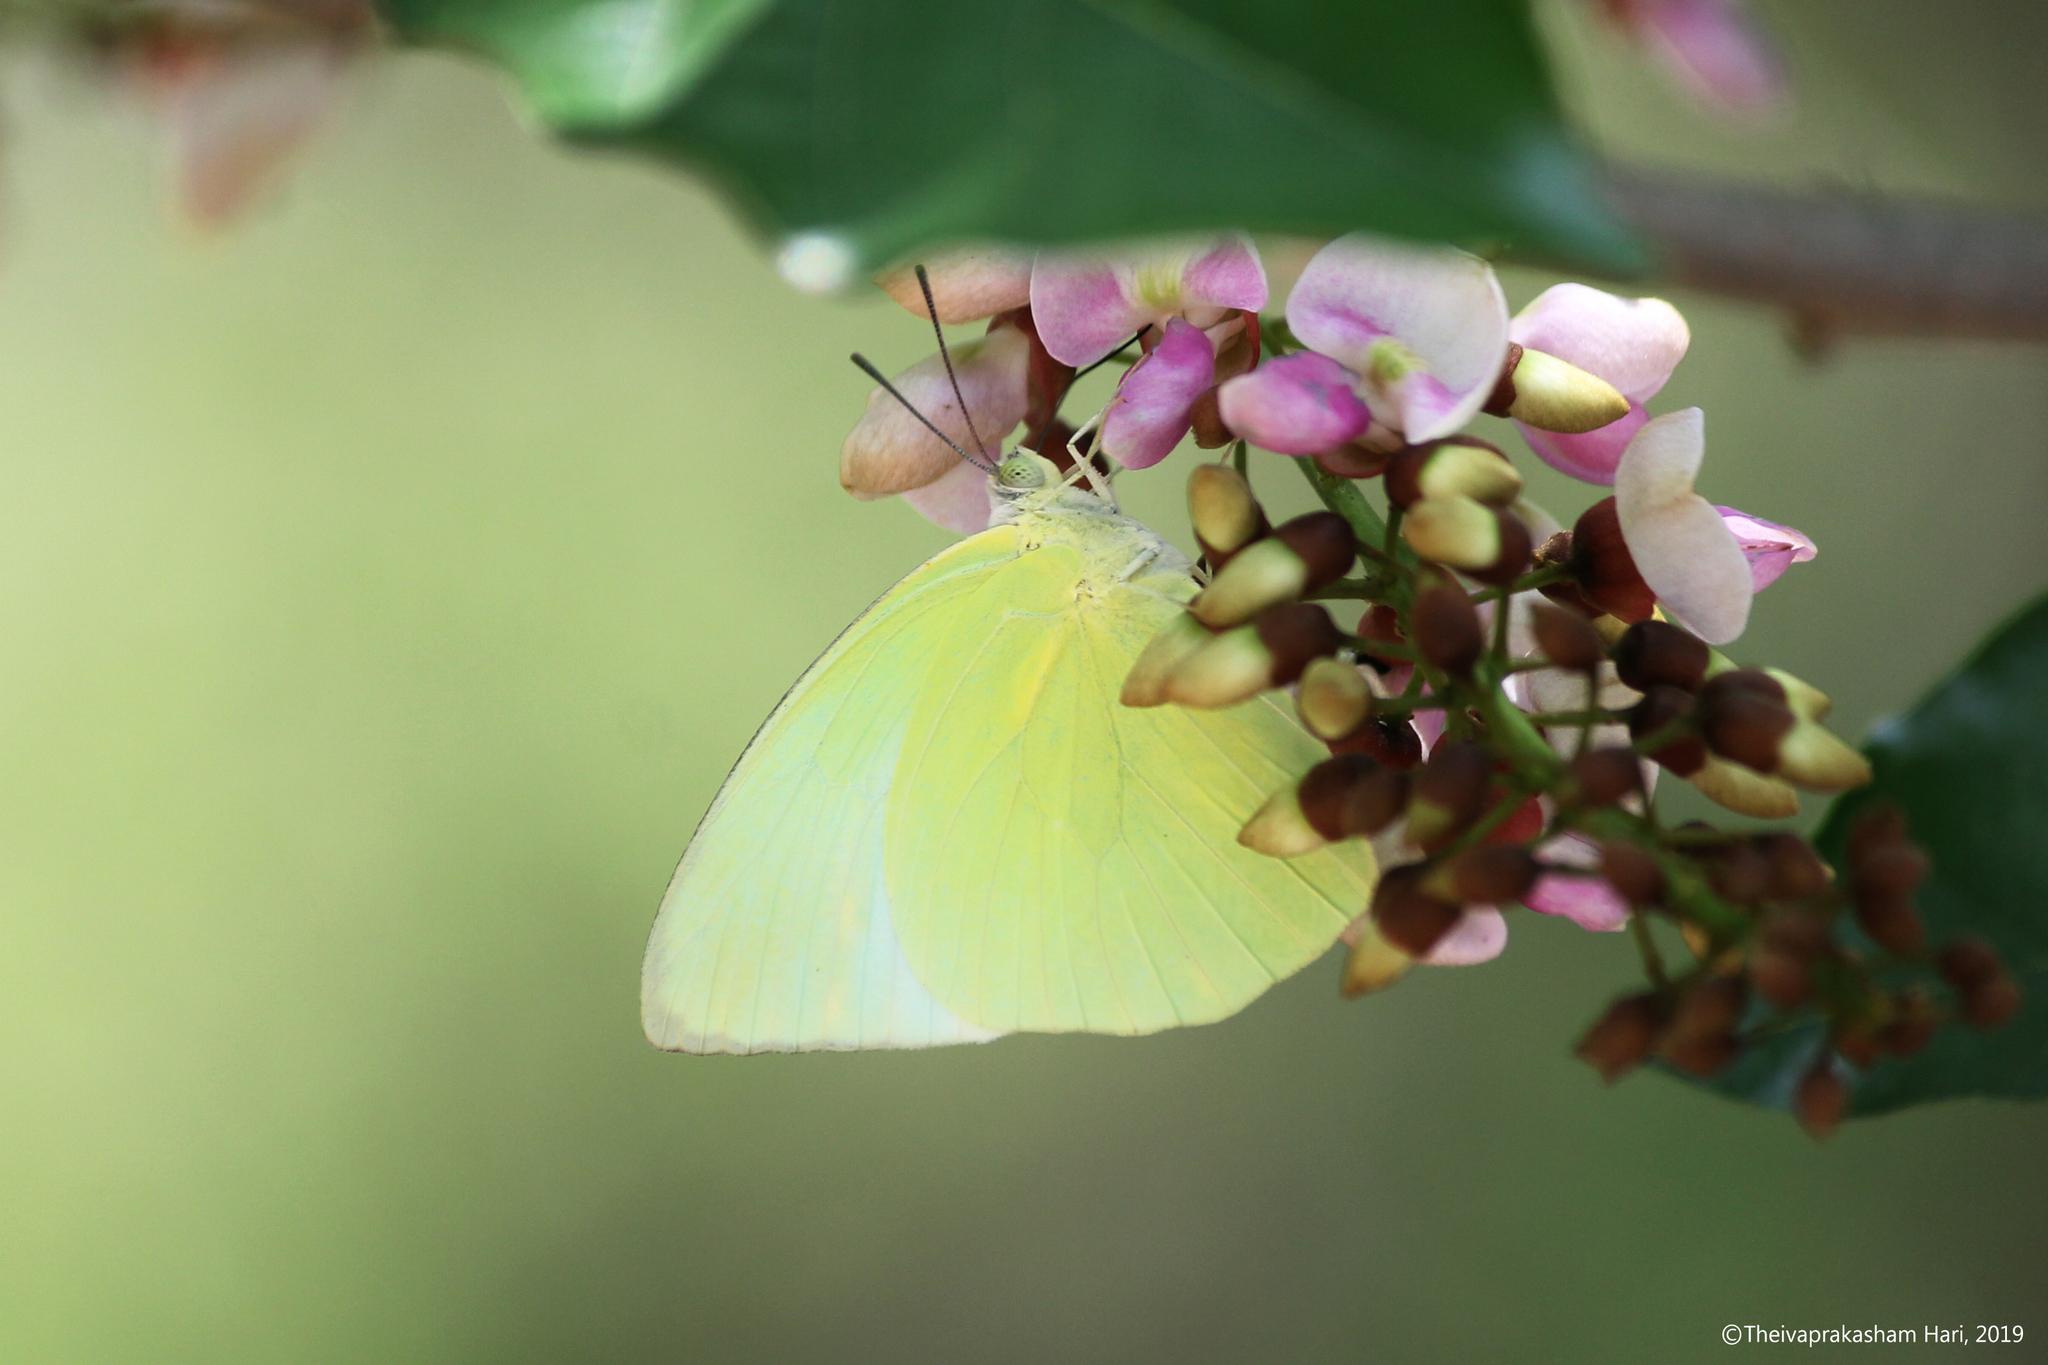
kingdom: Animalia
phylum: Arthropoda
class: Insecta
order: Lepidoptera
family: Pieridae
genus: Catopsilia
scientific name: Catopsilia pomona
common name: Common emigrant
